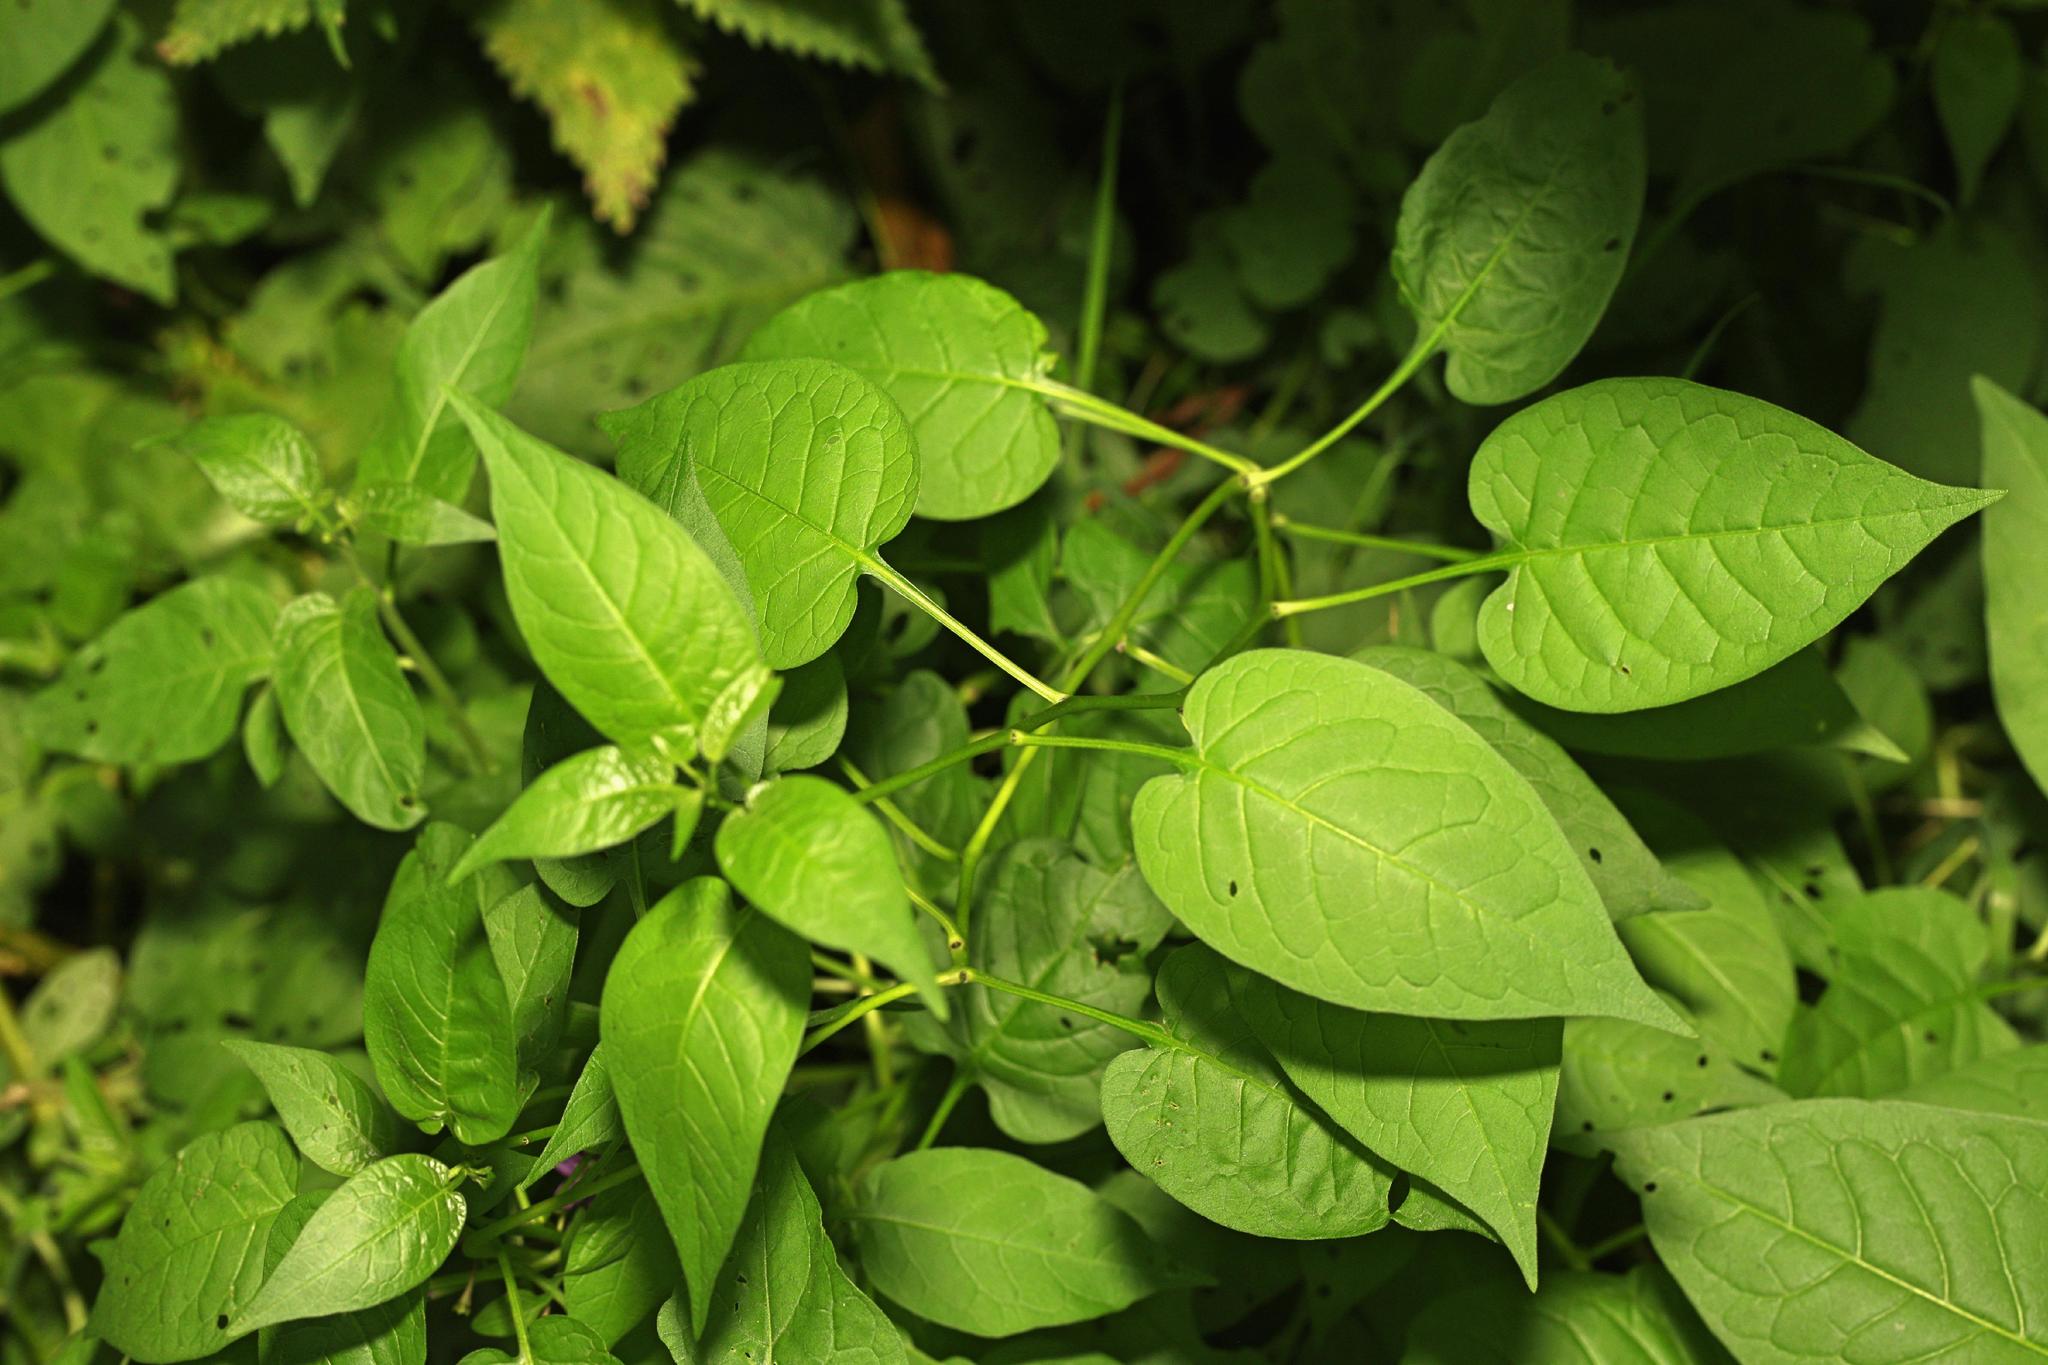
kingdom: Plantae
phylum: Tracheophyta
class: Magnoliopsida
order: Solanales
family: Solanaceae
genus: Solanum
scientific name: Solanum dulcamara
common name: Climbing nightshade
